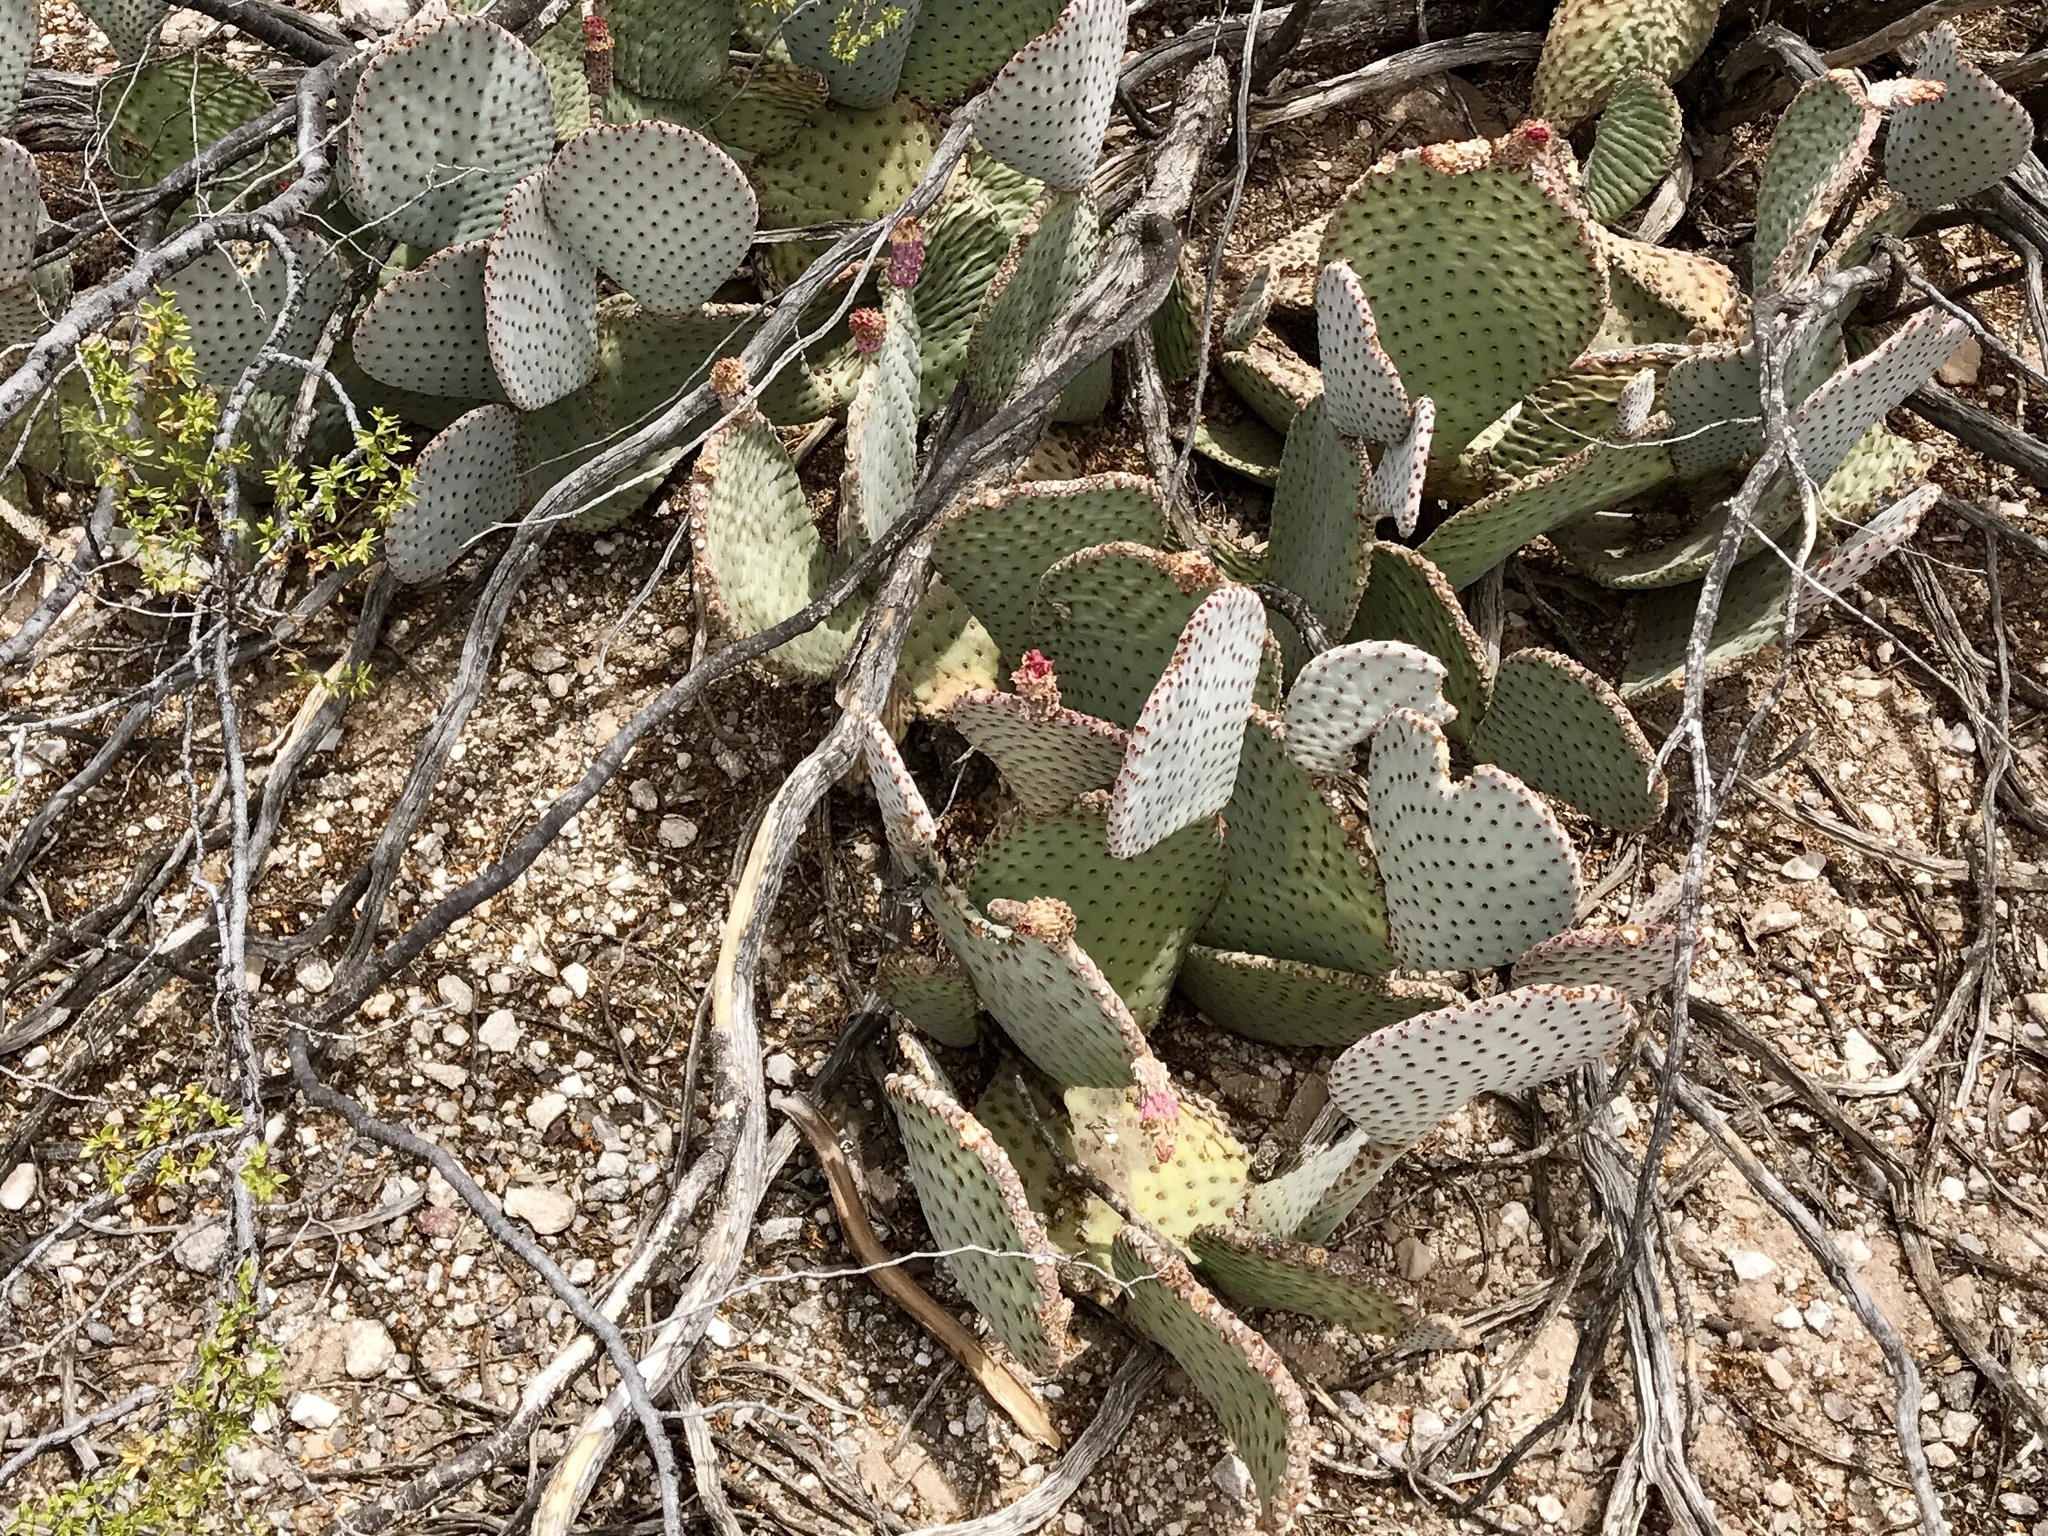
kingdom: Plantae
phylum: Tracheophyta
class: Magnoliopsida
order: Caryophyllales
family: Cactaceae
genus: Opuntia
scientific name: Opuntia basilaris
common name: Beavertail prickly-pear
